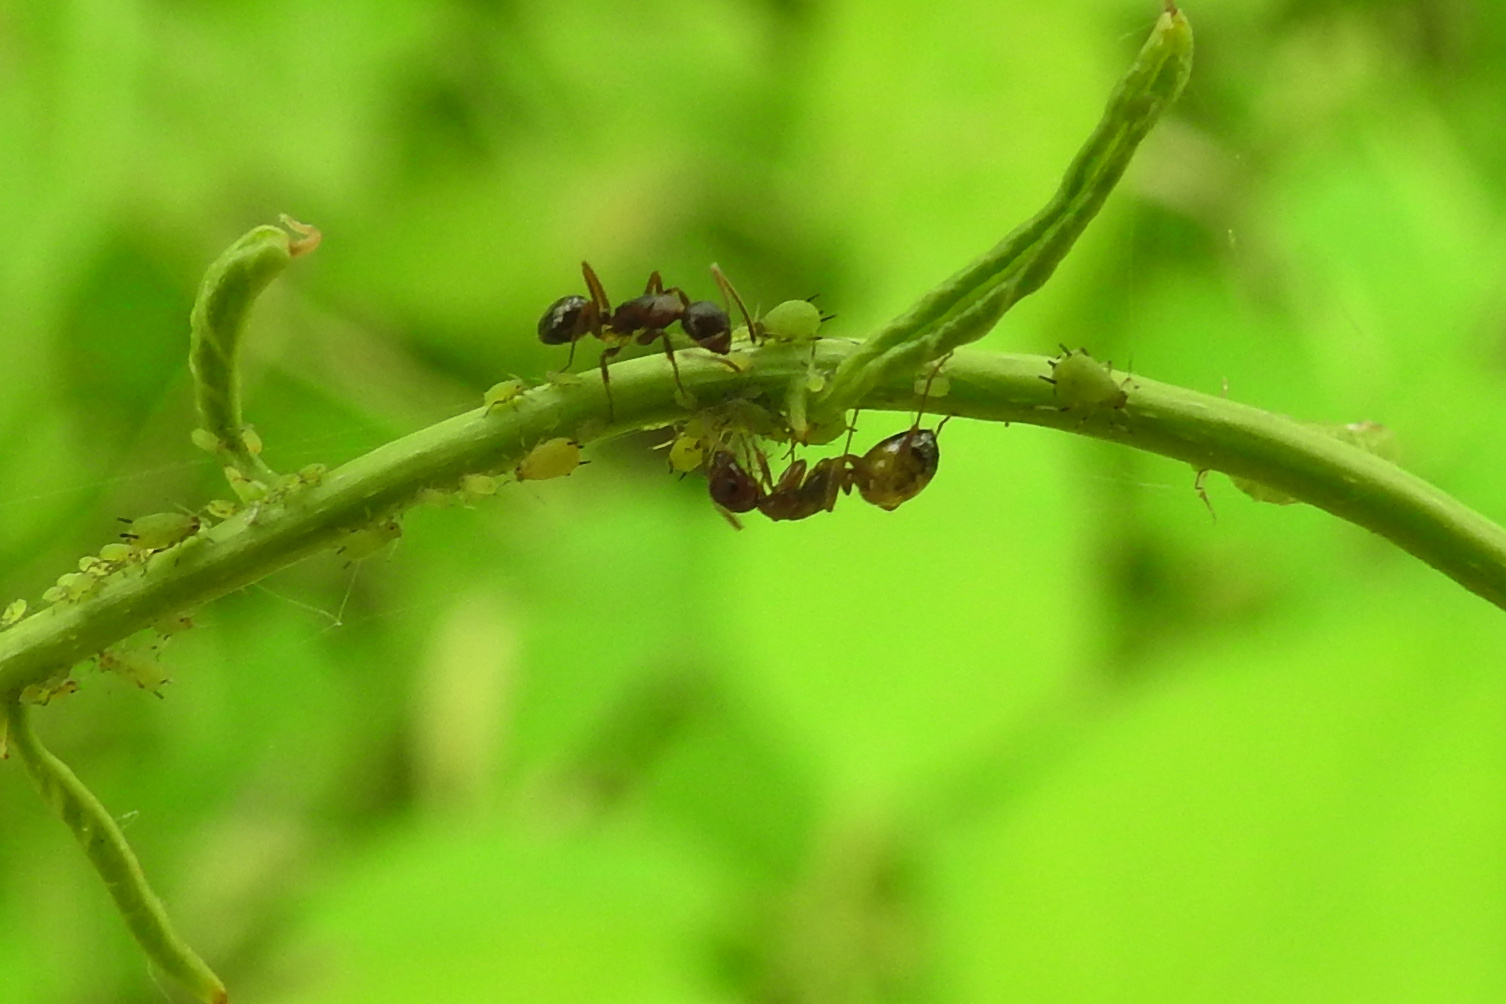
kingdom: Animalia
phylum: Arthropoda
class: Insecta
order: Hymenoptera
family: Formicidae
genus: Camponotus
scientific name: Camponotus subbarbatus
